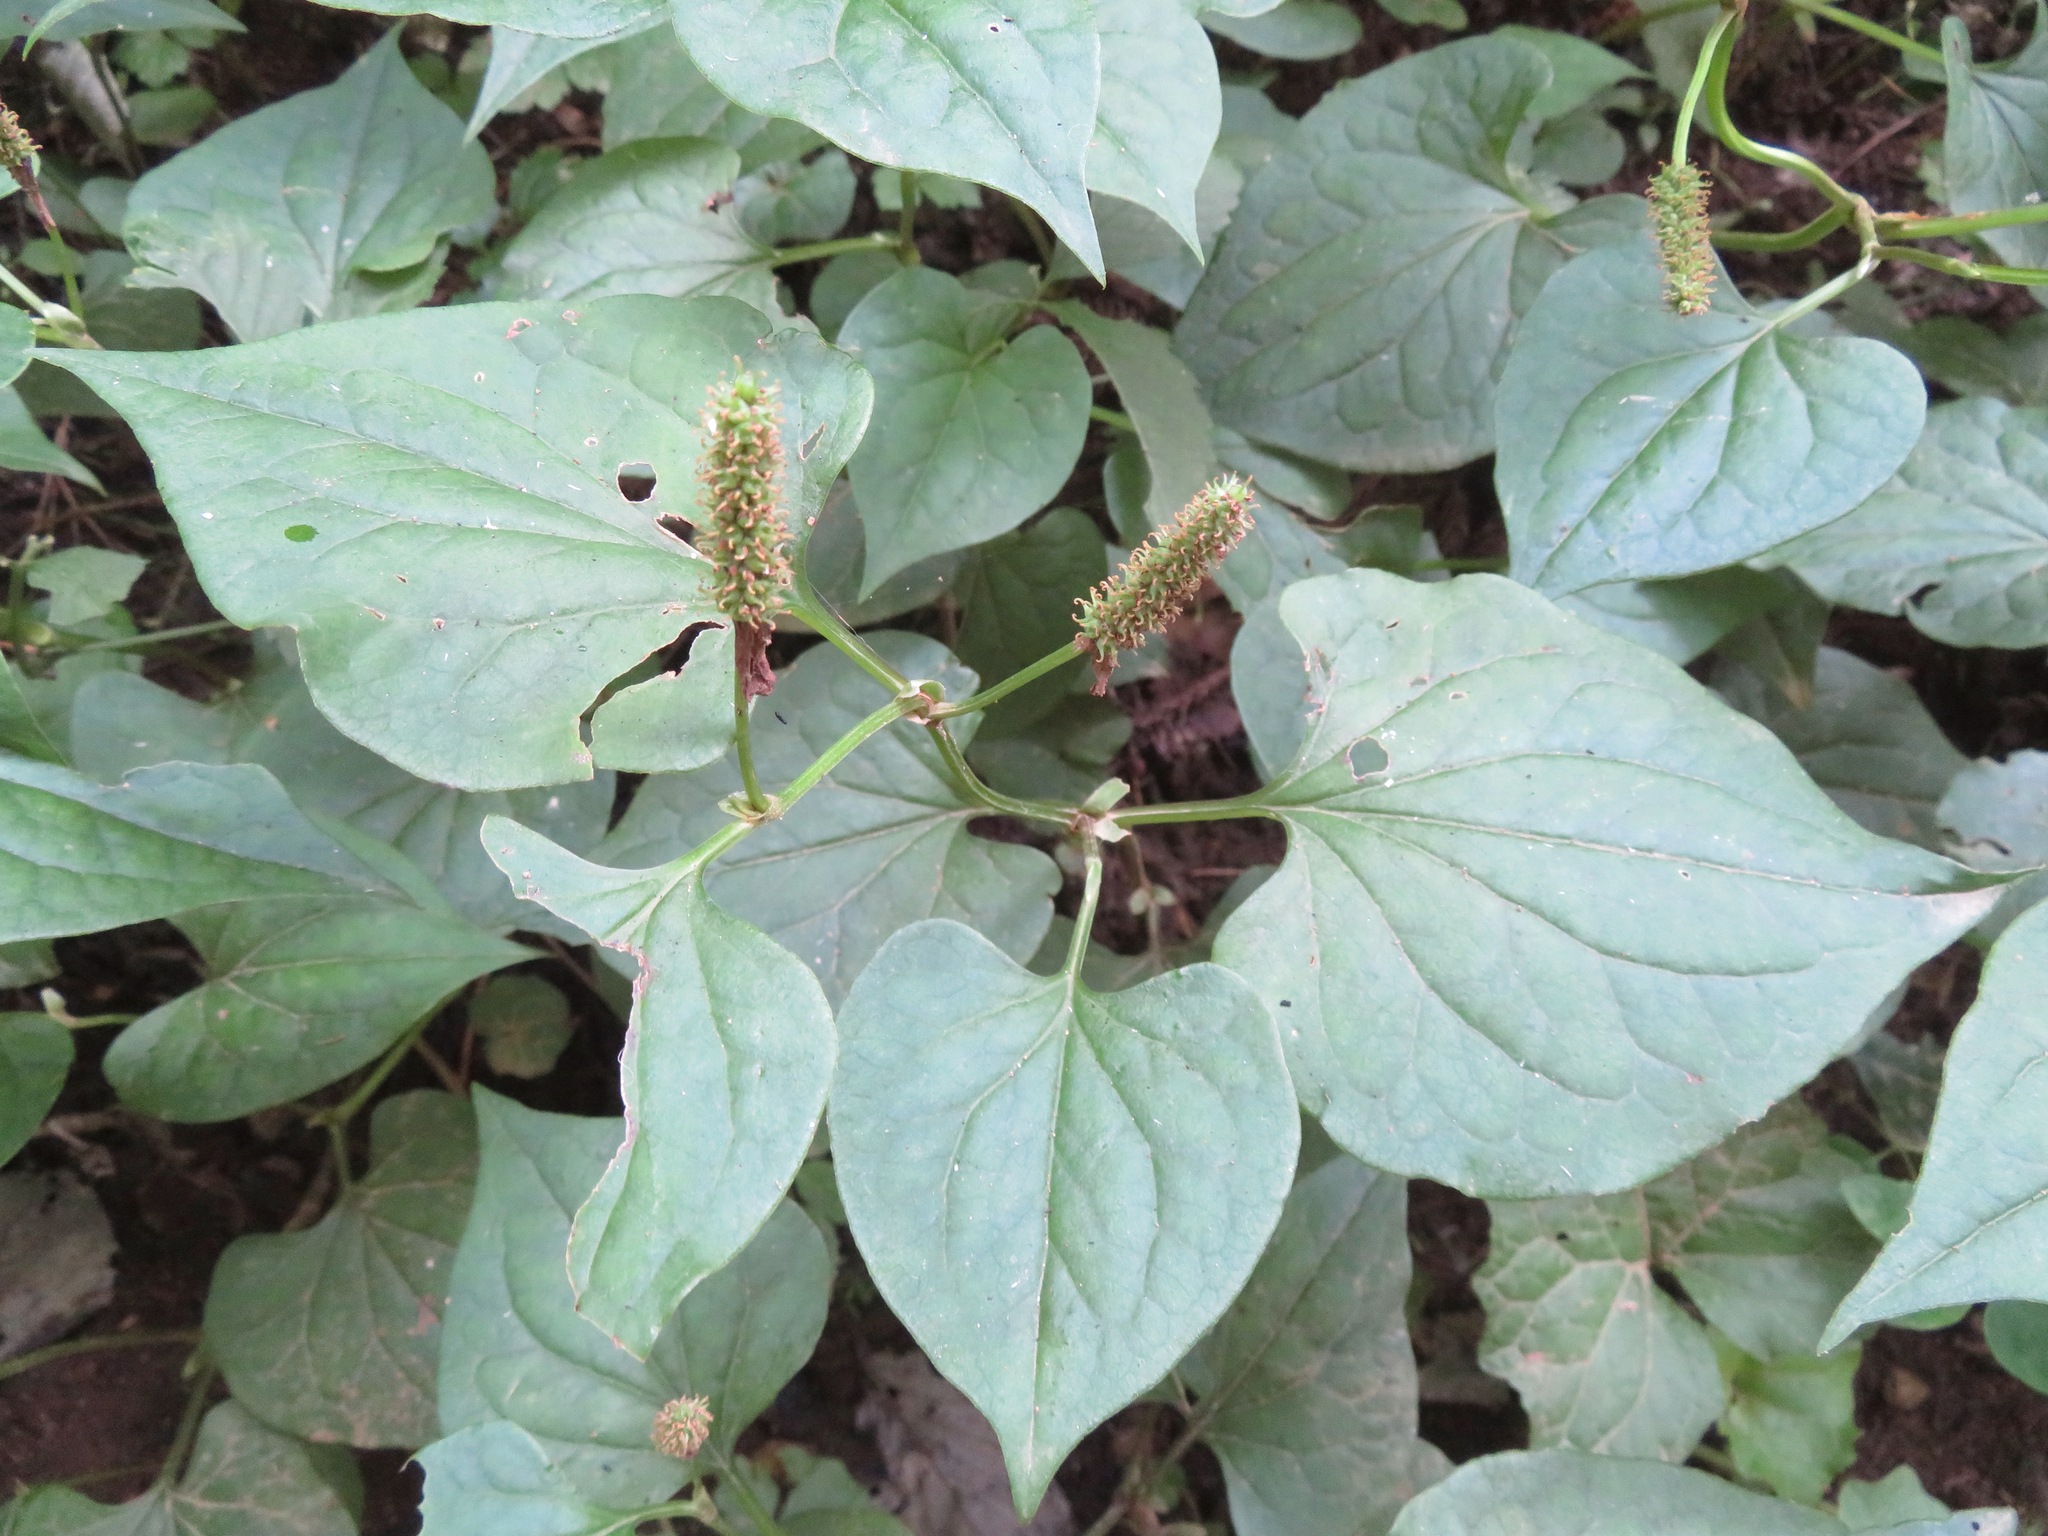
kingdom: Plantae
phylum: Tracheophyta
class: Magnoliopsida
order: Piperales
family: Saururaceae
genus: Houttuynia
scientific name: Houttuynia cordata
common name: Chameleon
